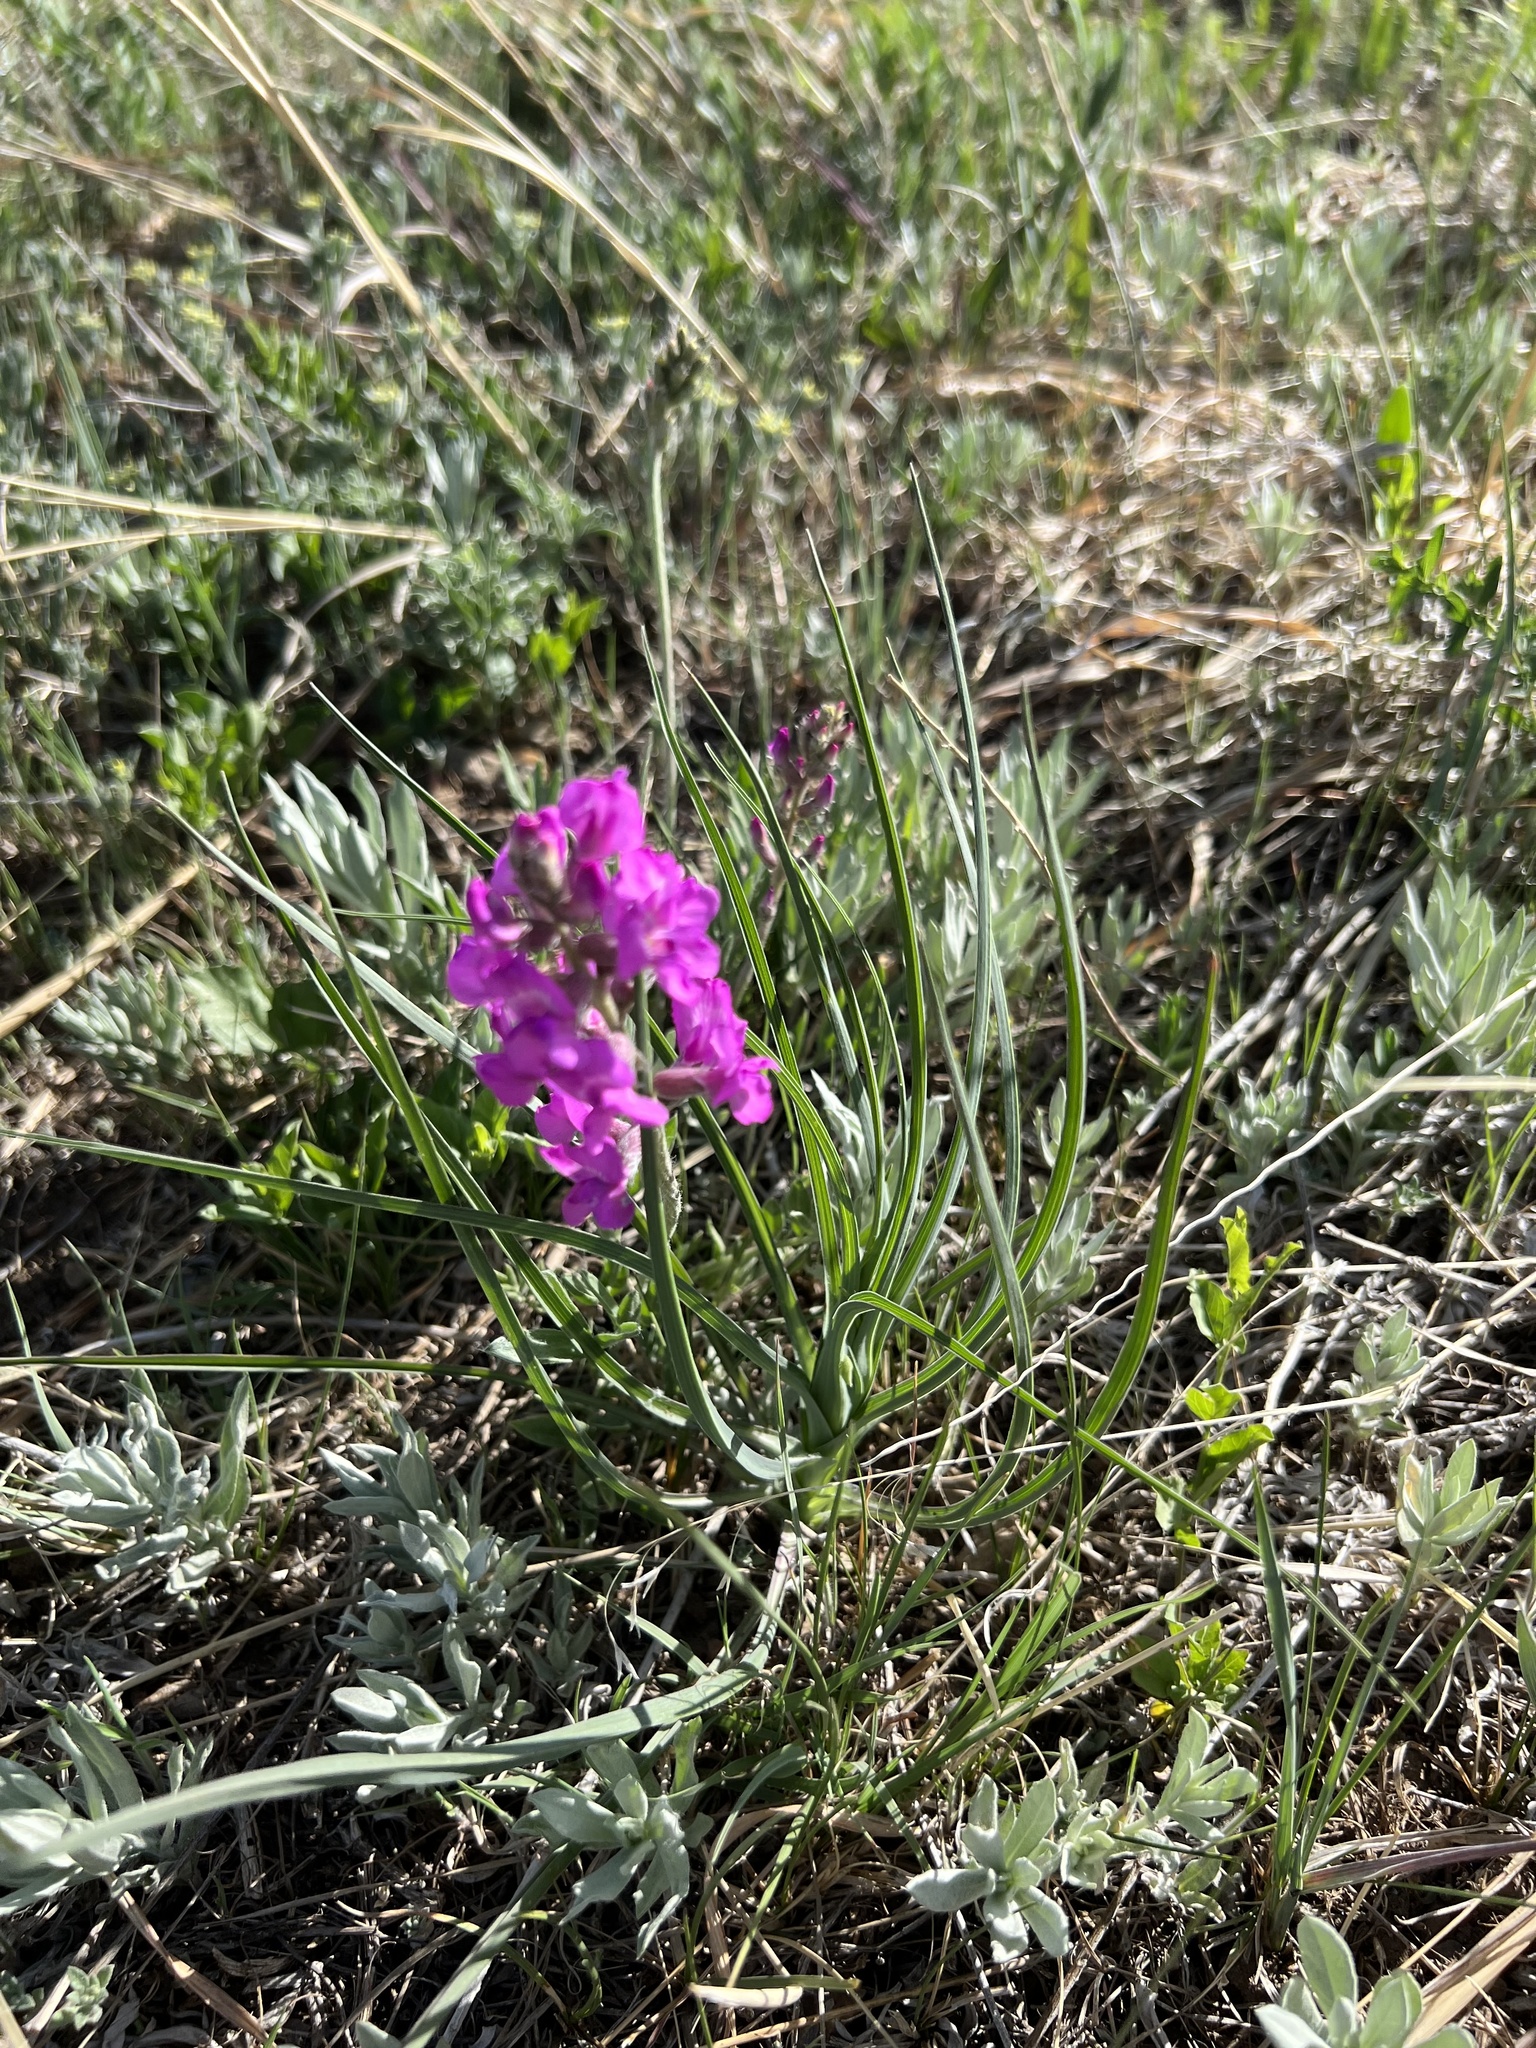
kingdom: Plantae
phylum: Tracheophyta
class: Magnoliopsida
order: Fabales
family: Fabaceae
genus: Oxytropis
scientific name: Oxytropis lambertii
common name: Purple locoweed
